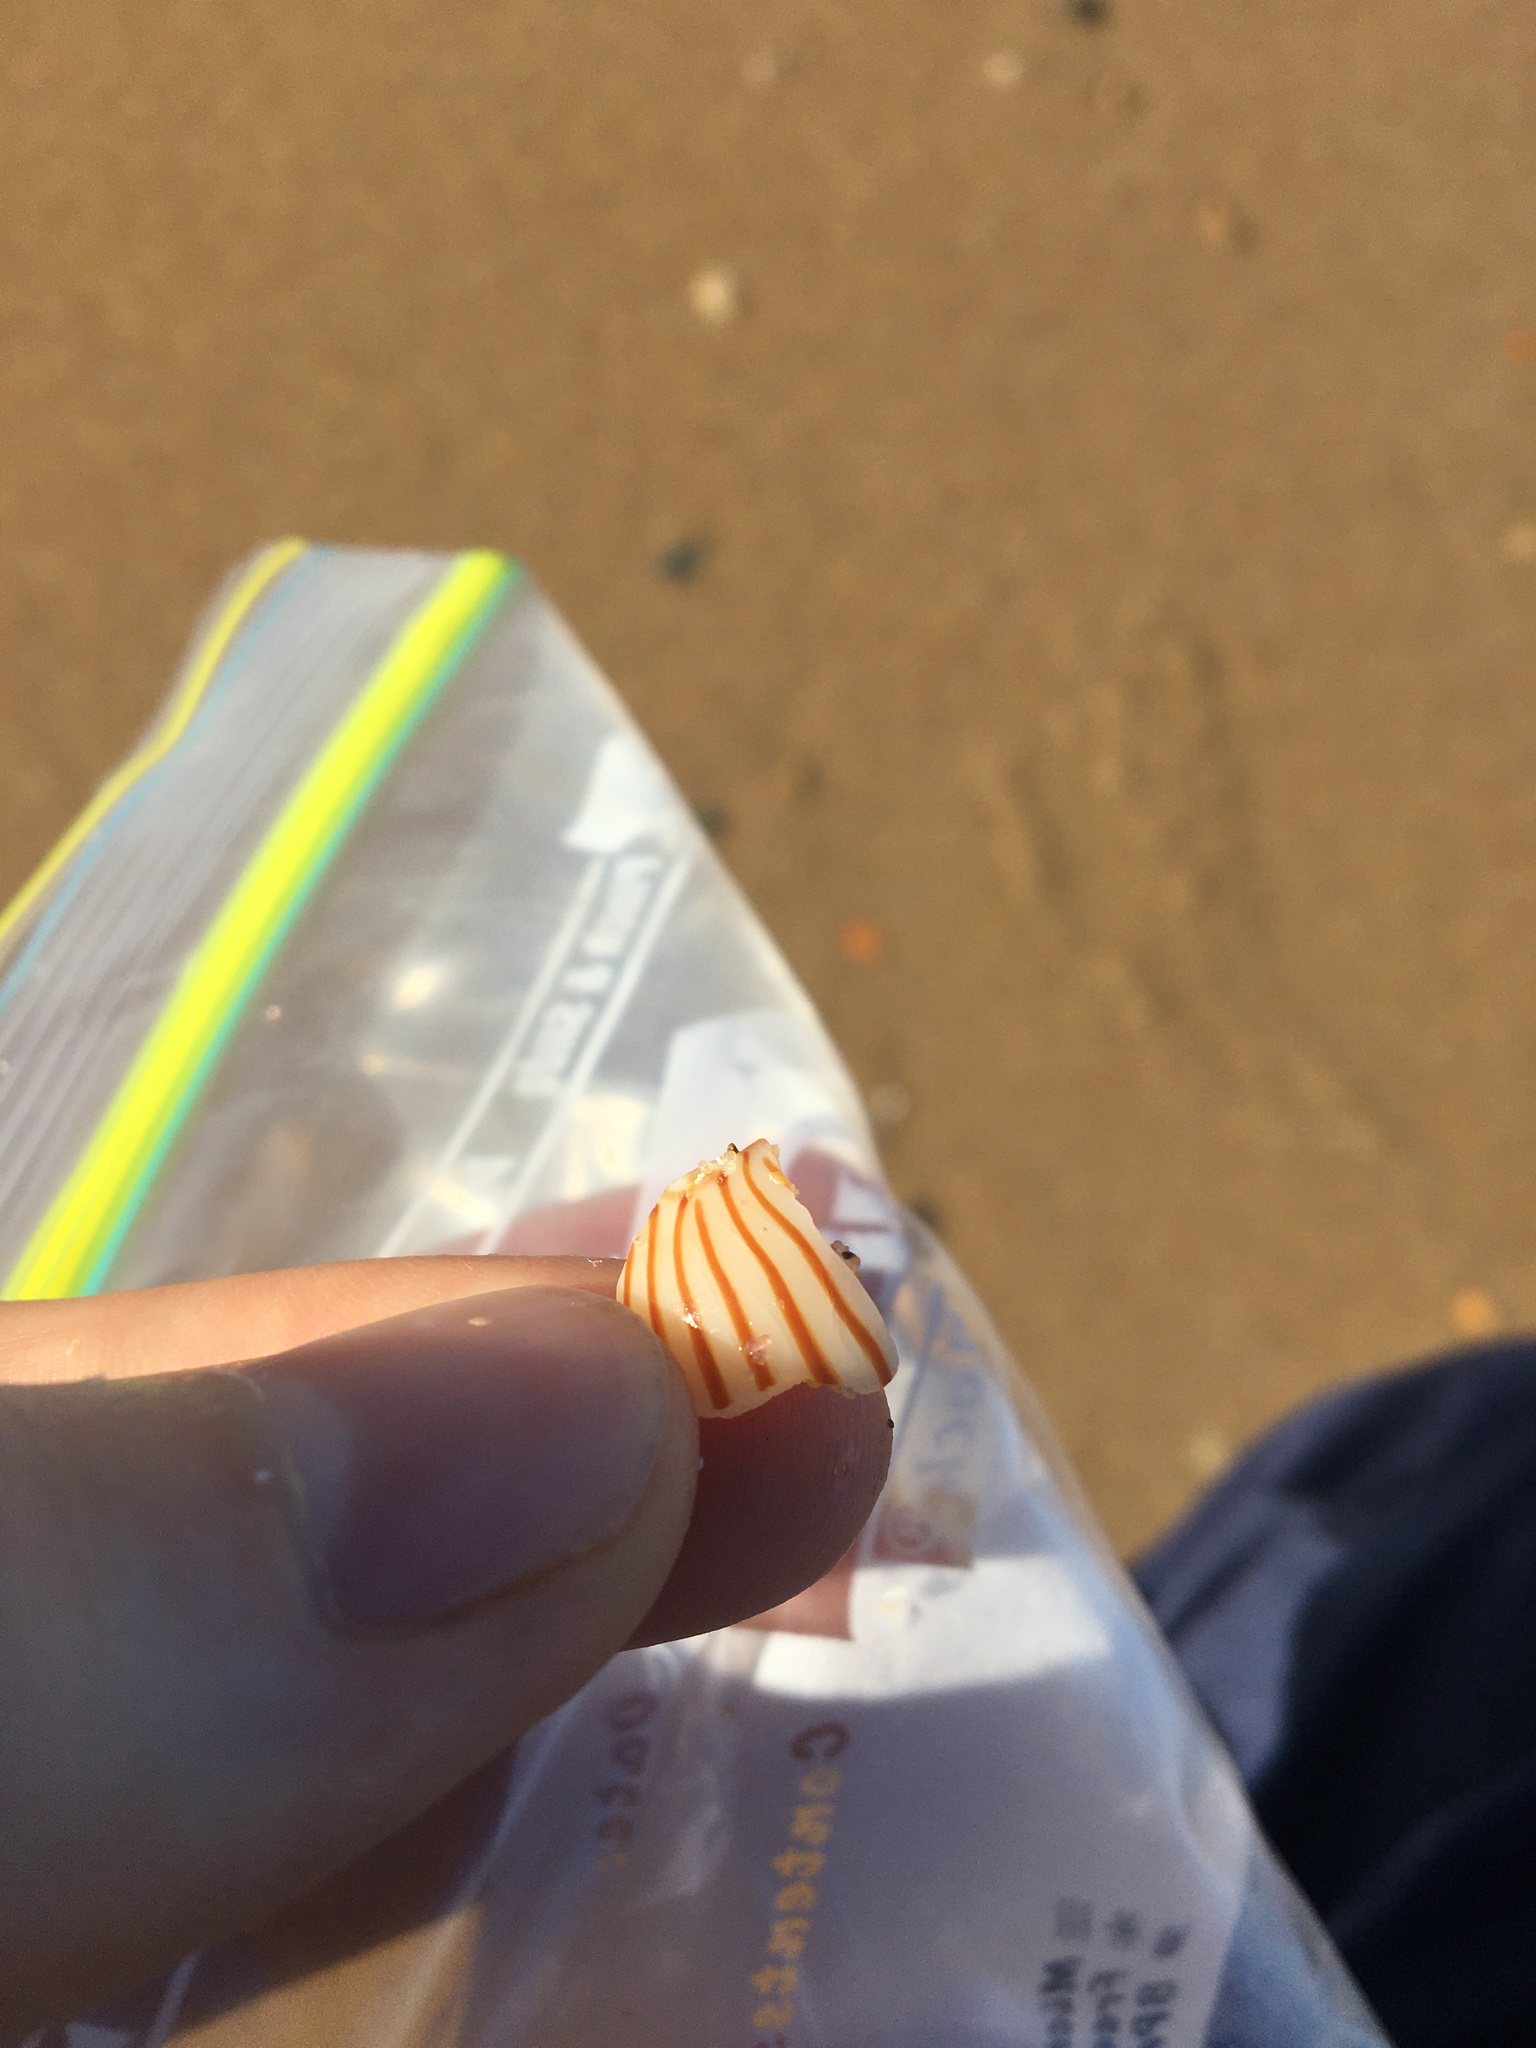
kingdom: Animalia
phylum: Mollusca
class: Gastropoda
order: Neogastropoda
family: Volutidae
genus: Amoria
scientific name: Amoria zebra
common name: Zebra volute
